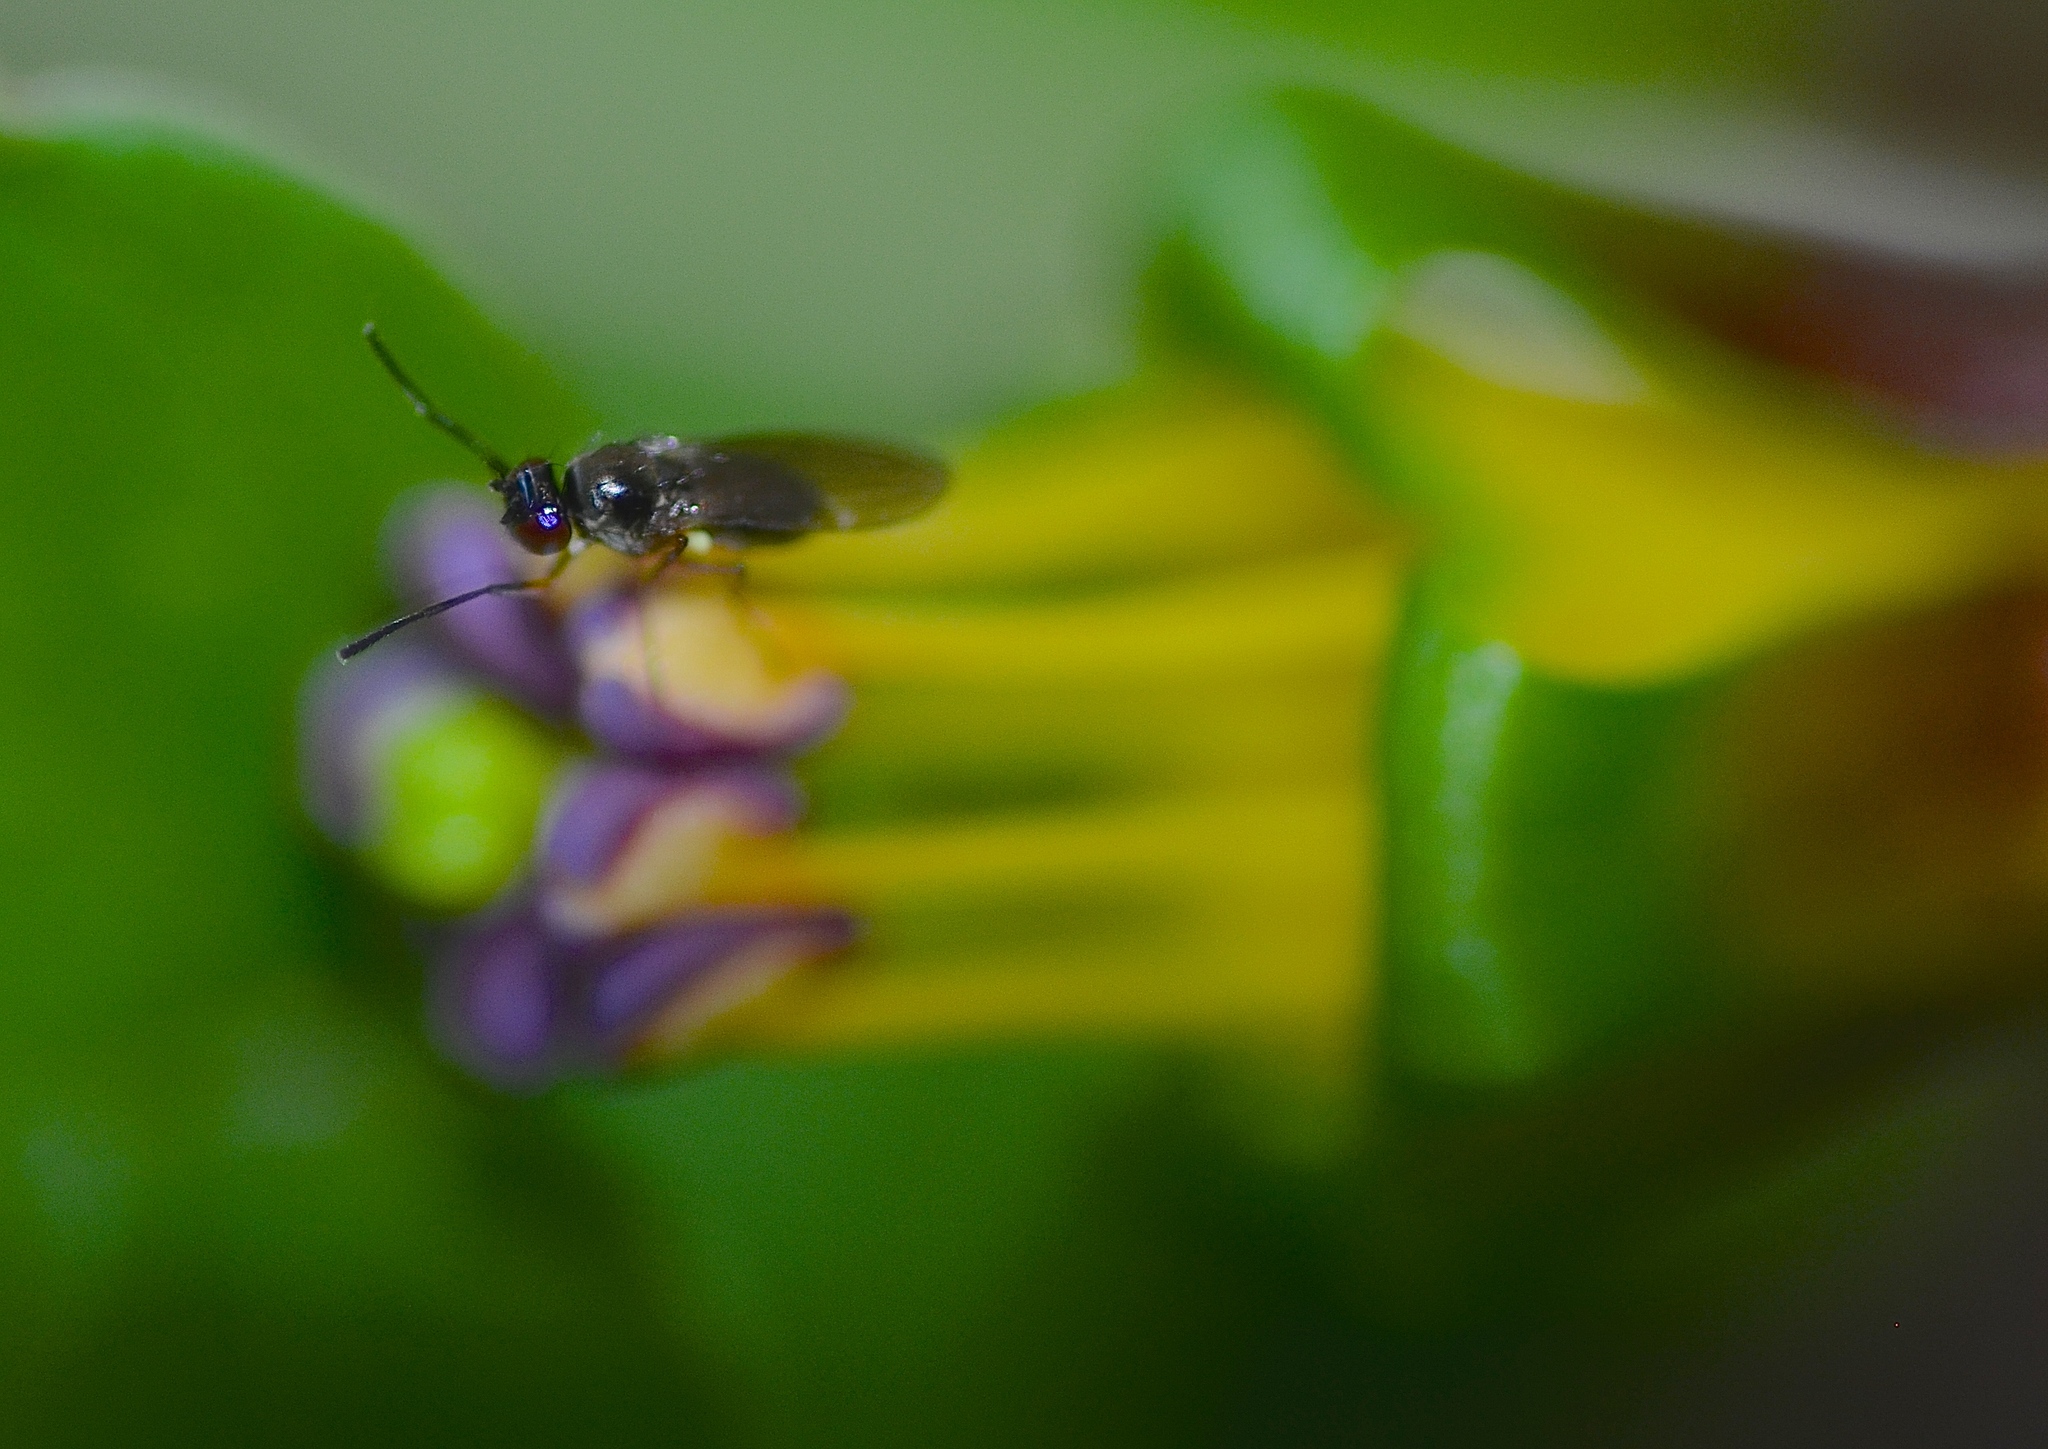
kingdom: Animalia
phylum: Arthropoda
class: Insecta
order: Diptera
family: Ephydridae
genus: Hydrellia
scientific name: Hydrellia tritici
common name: Shore fly
